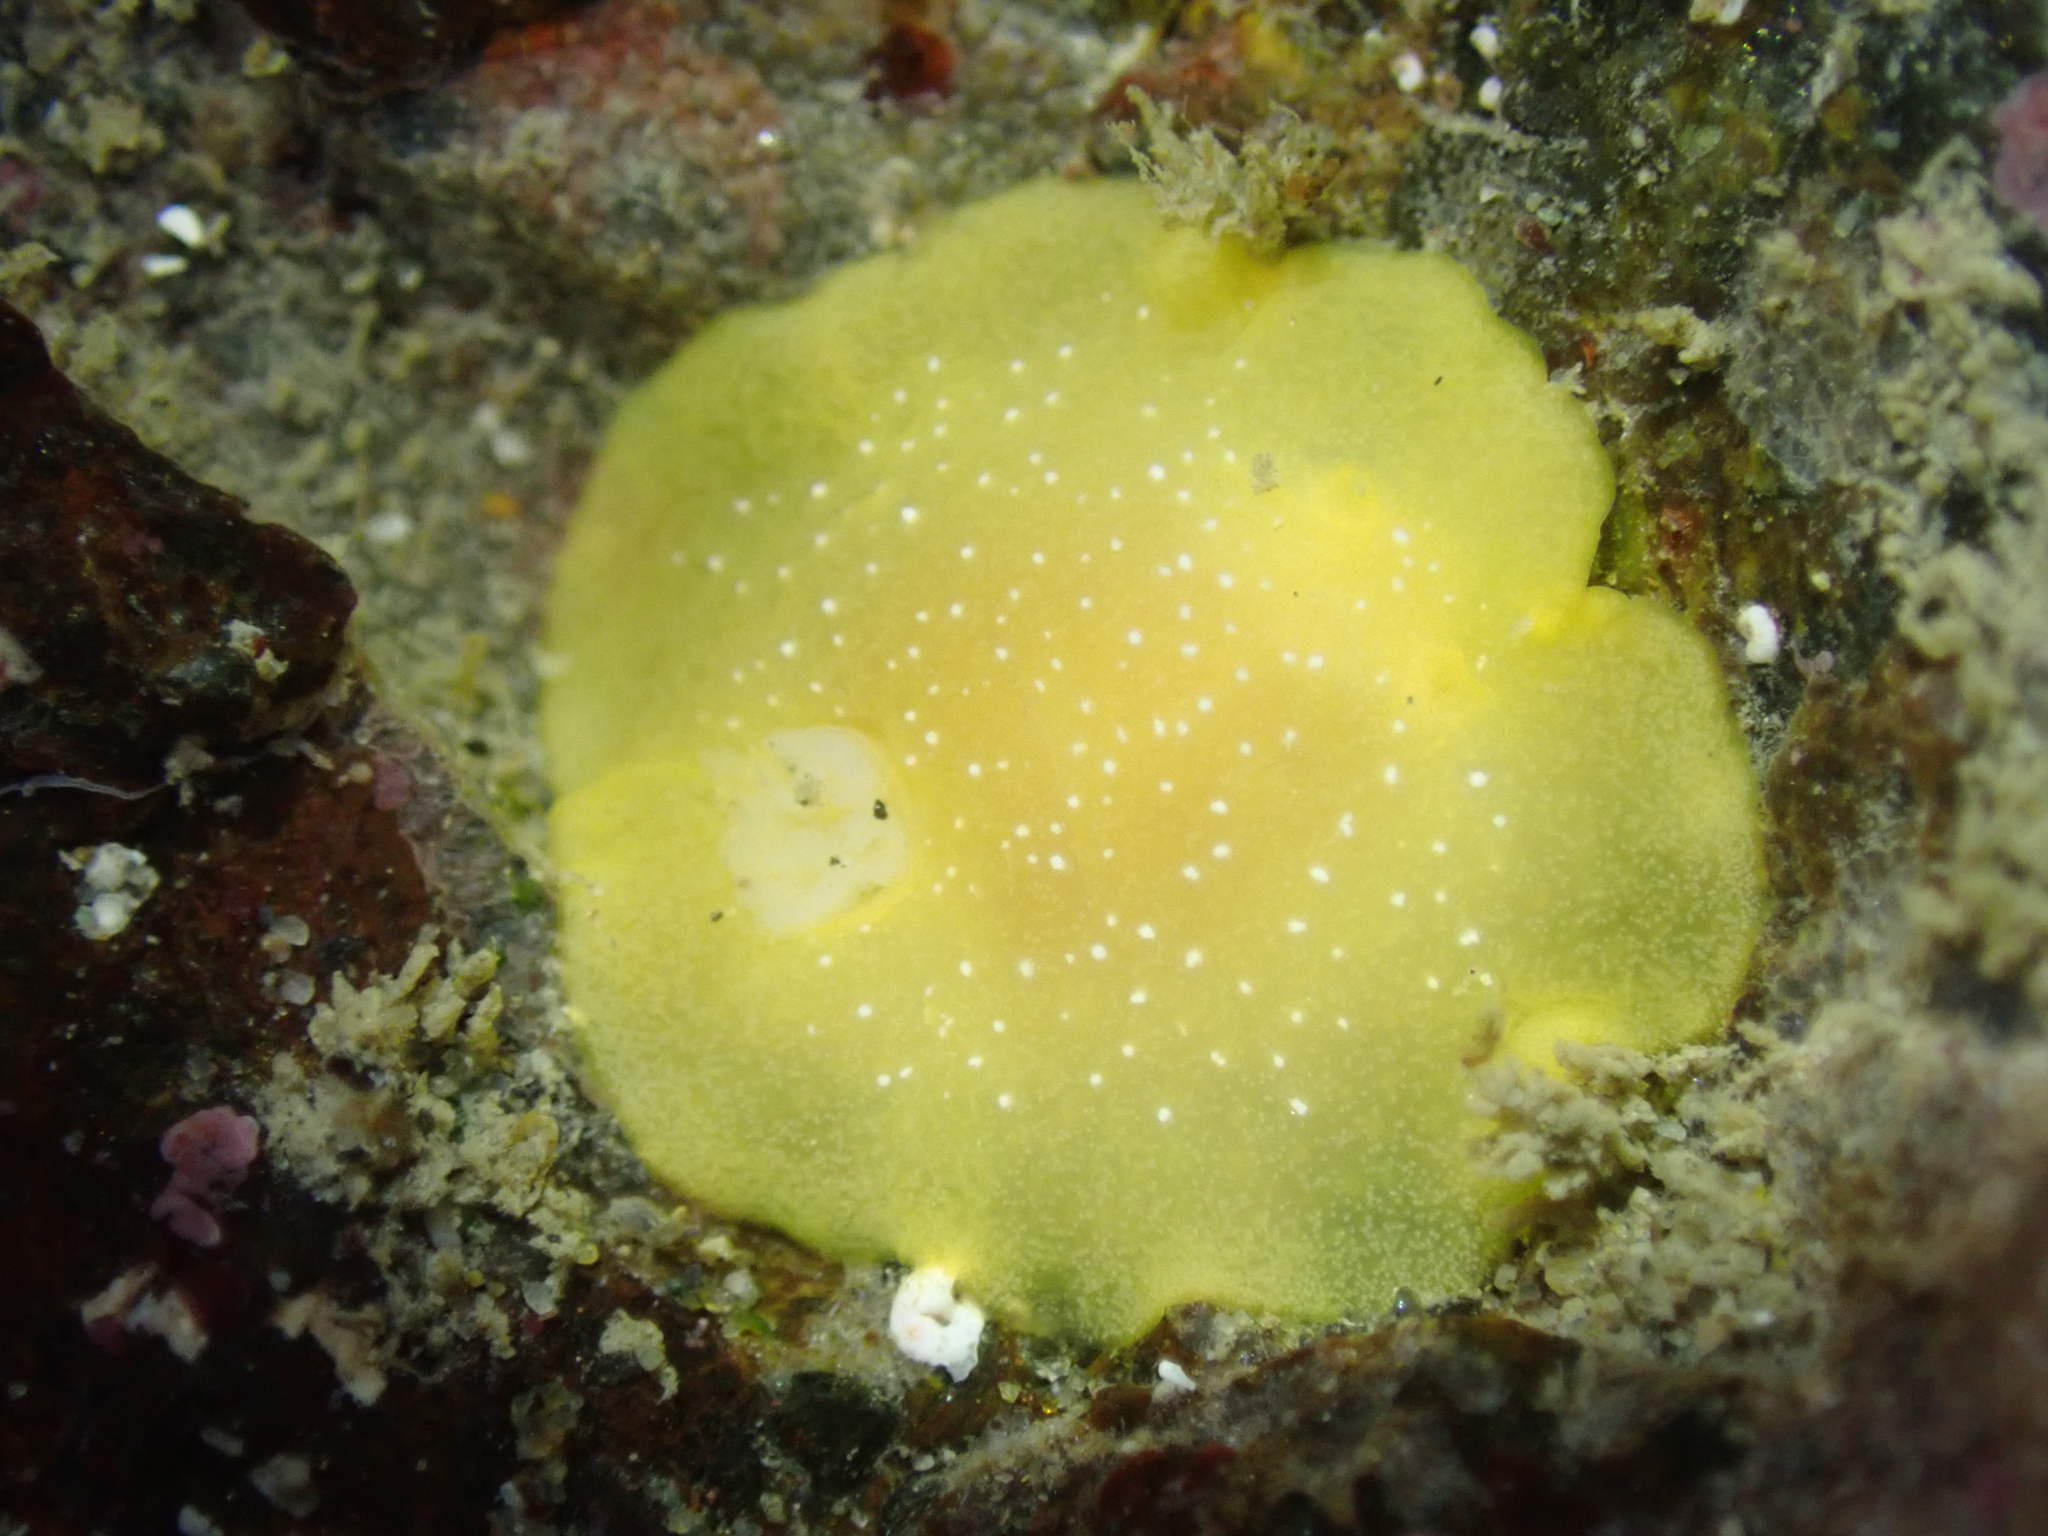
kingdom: Animalia
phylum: Mollusca
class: Gastropoda
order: Nudibranchia
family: Dendrodorididae
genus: Doriopsilla
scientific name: Doriopsilla fulva
